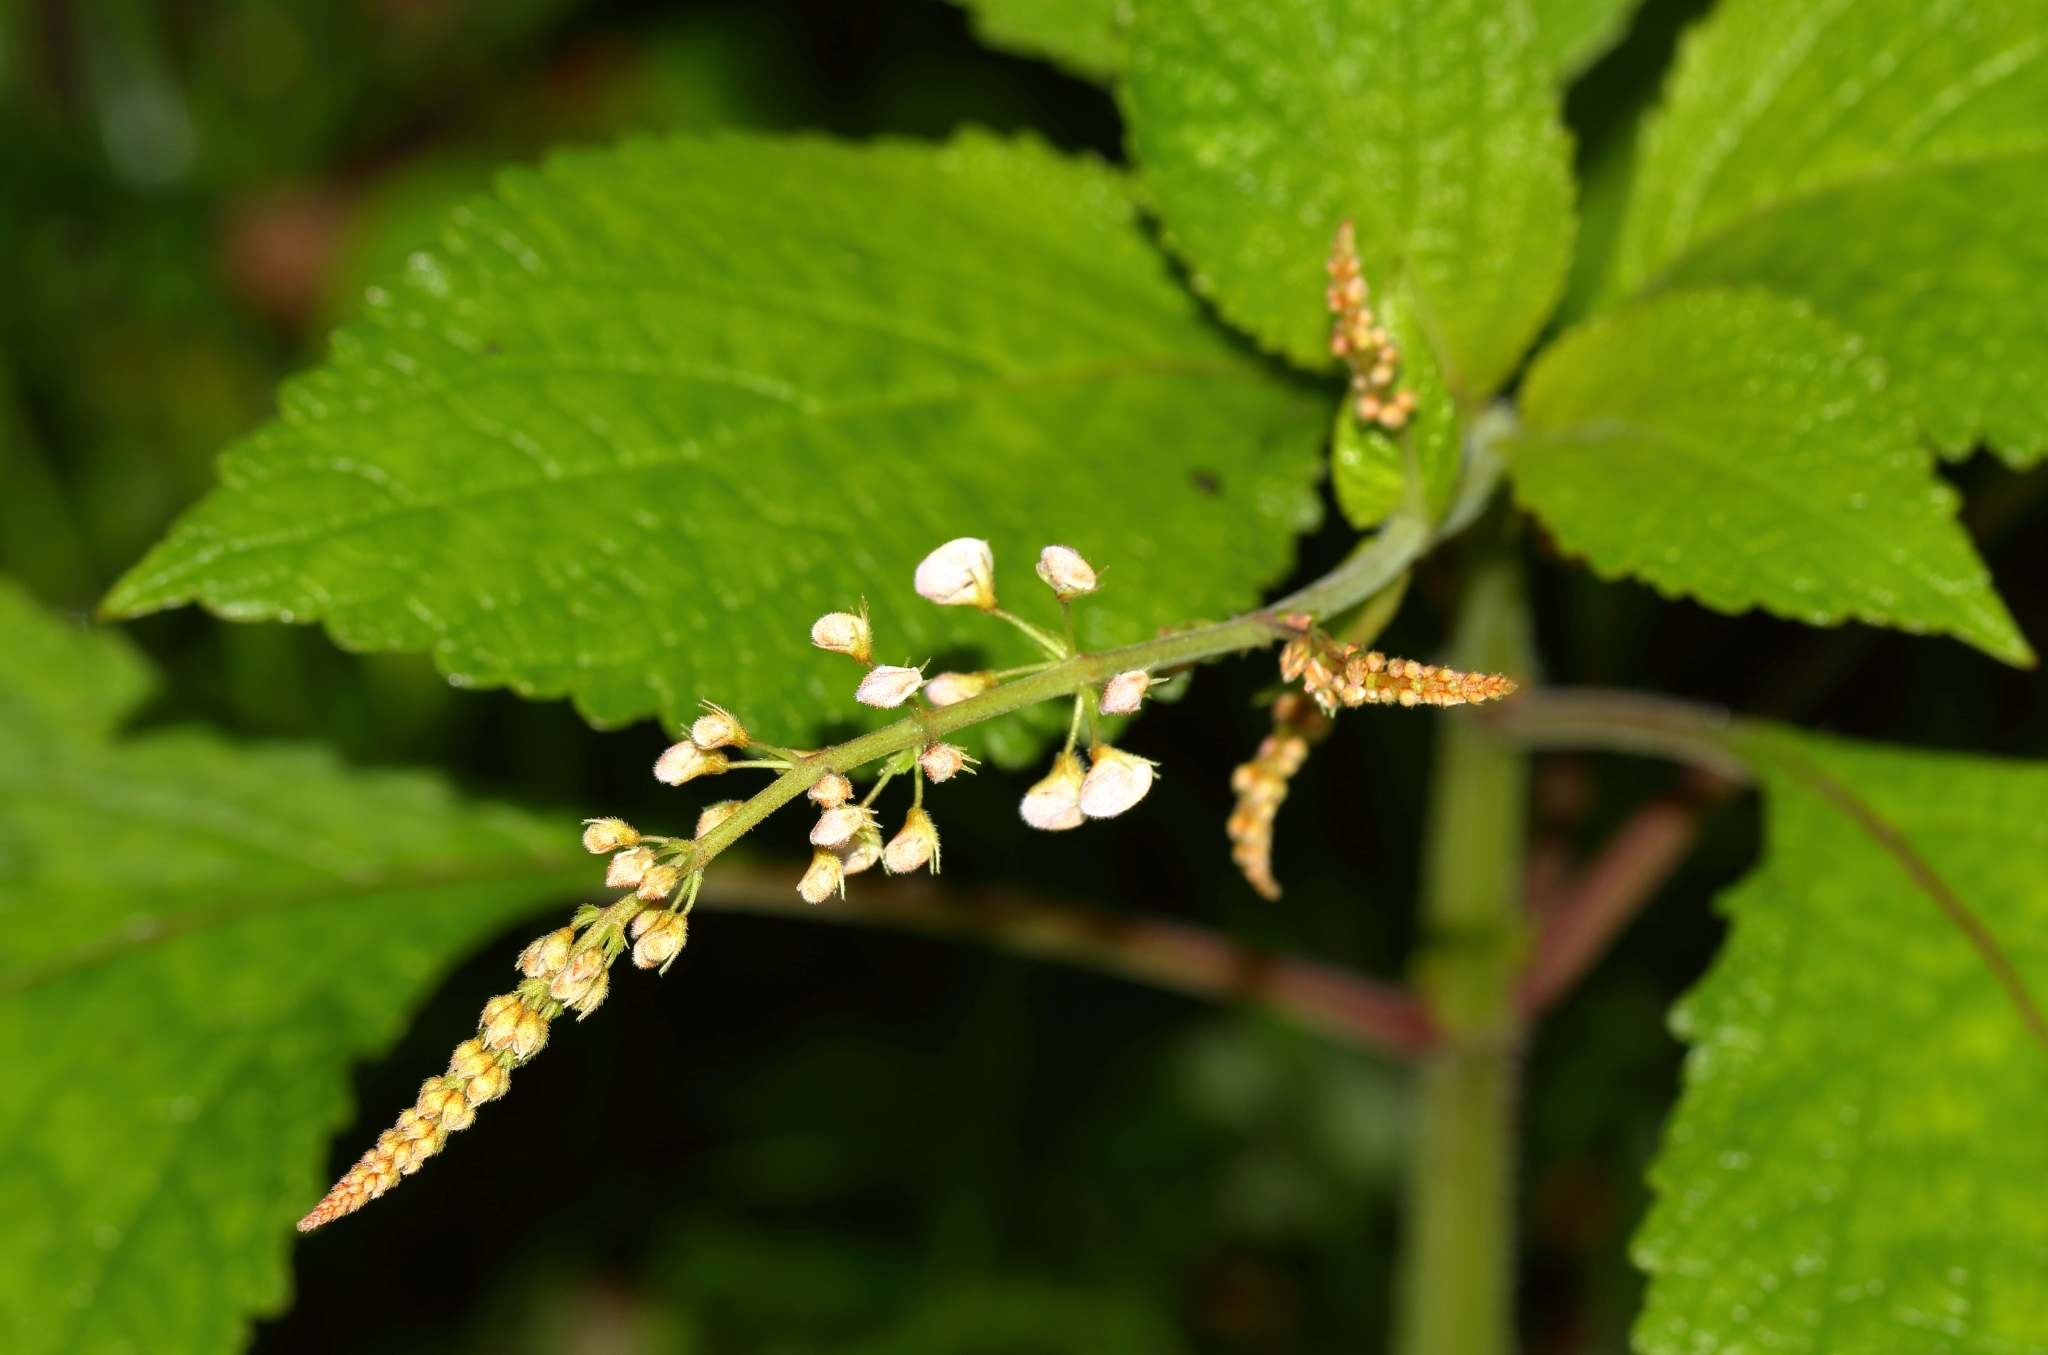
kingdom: Plantae
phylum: Tracheophyta
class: Magnoliopsida
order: Lamiales
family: Lamiaceae
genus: Plectranthus
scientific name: Plectranthus grallatus
